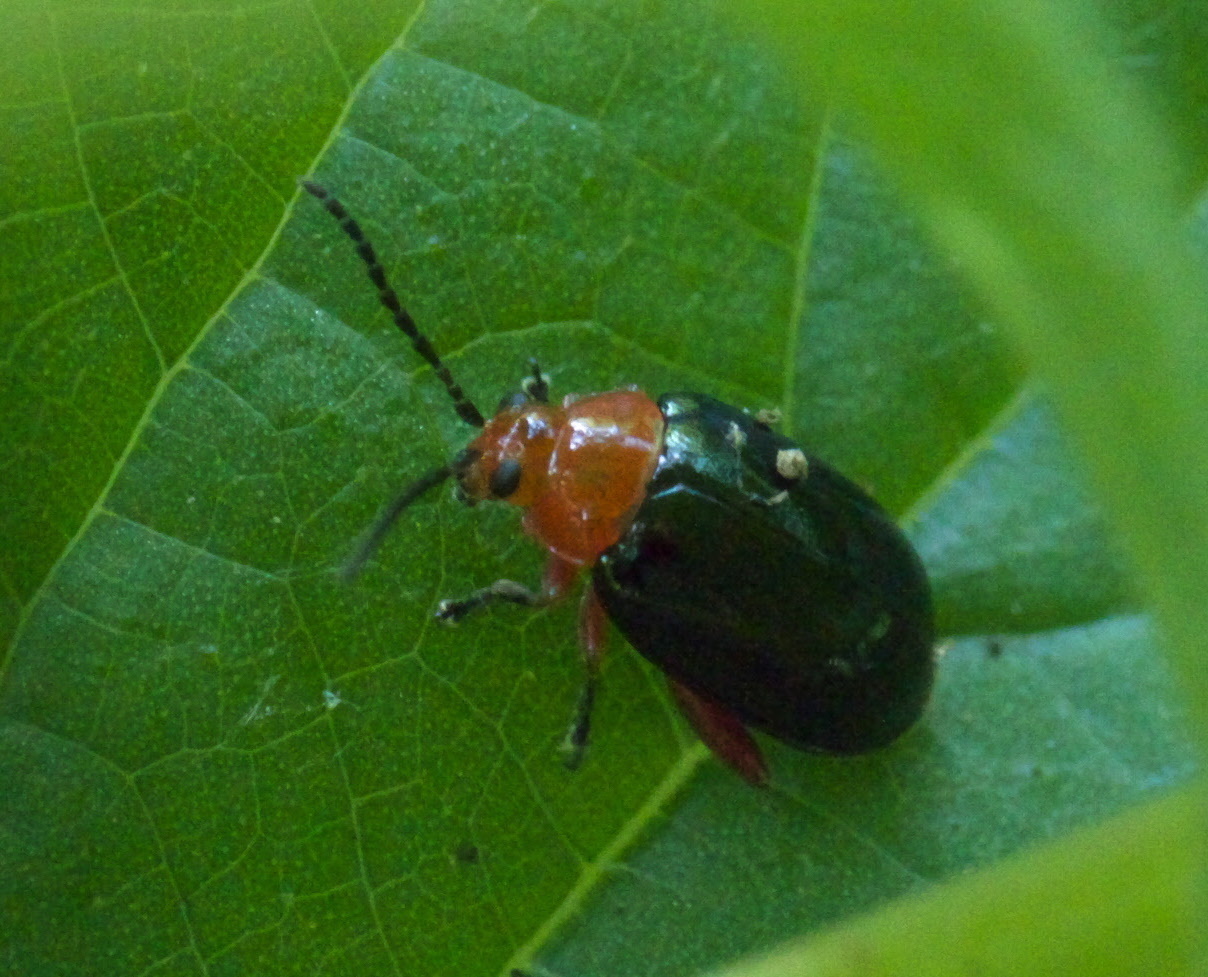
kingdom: Animalia
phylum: Arthropoda
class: Insecta
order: Coleoptera
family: Chrysomelidae
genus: Asphaera
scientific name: Asphaera lustrans
